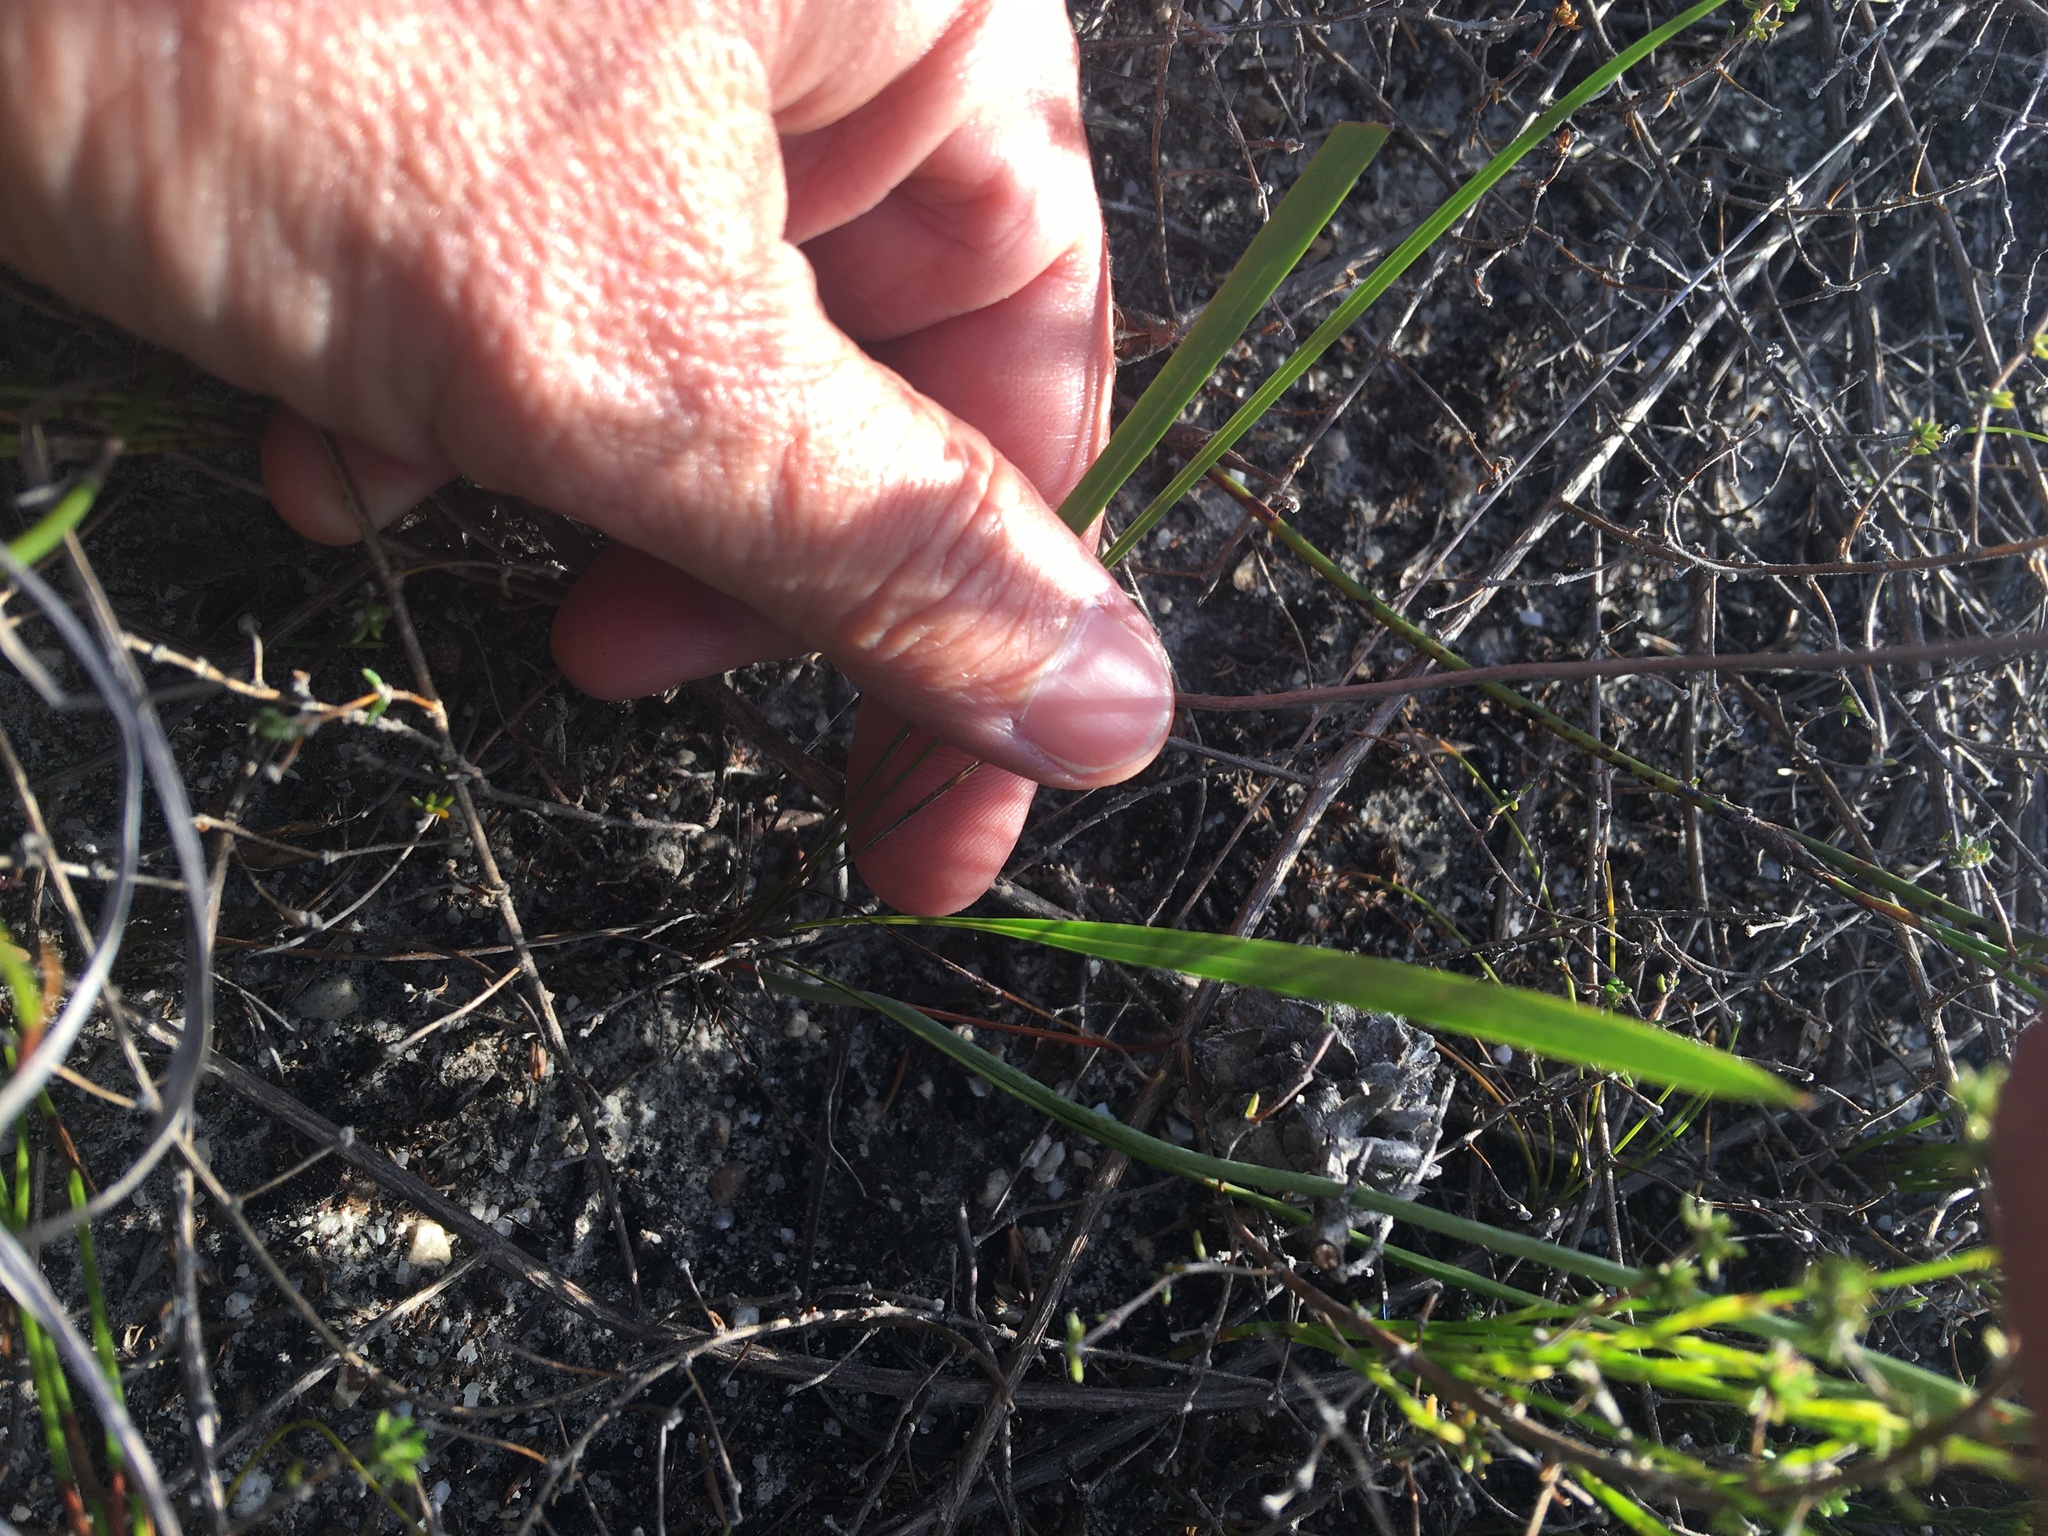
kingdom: Plantae
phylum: Tracheophyta
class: Liliopsida
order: Asparagales
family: Iridaceae
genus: Tritoniopsis
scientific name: Tritoniopsis parviflora
